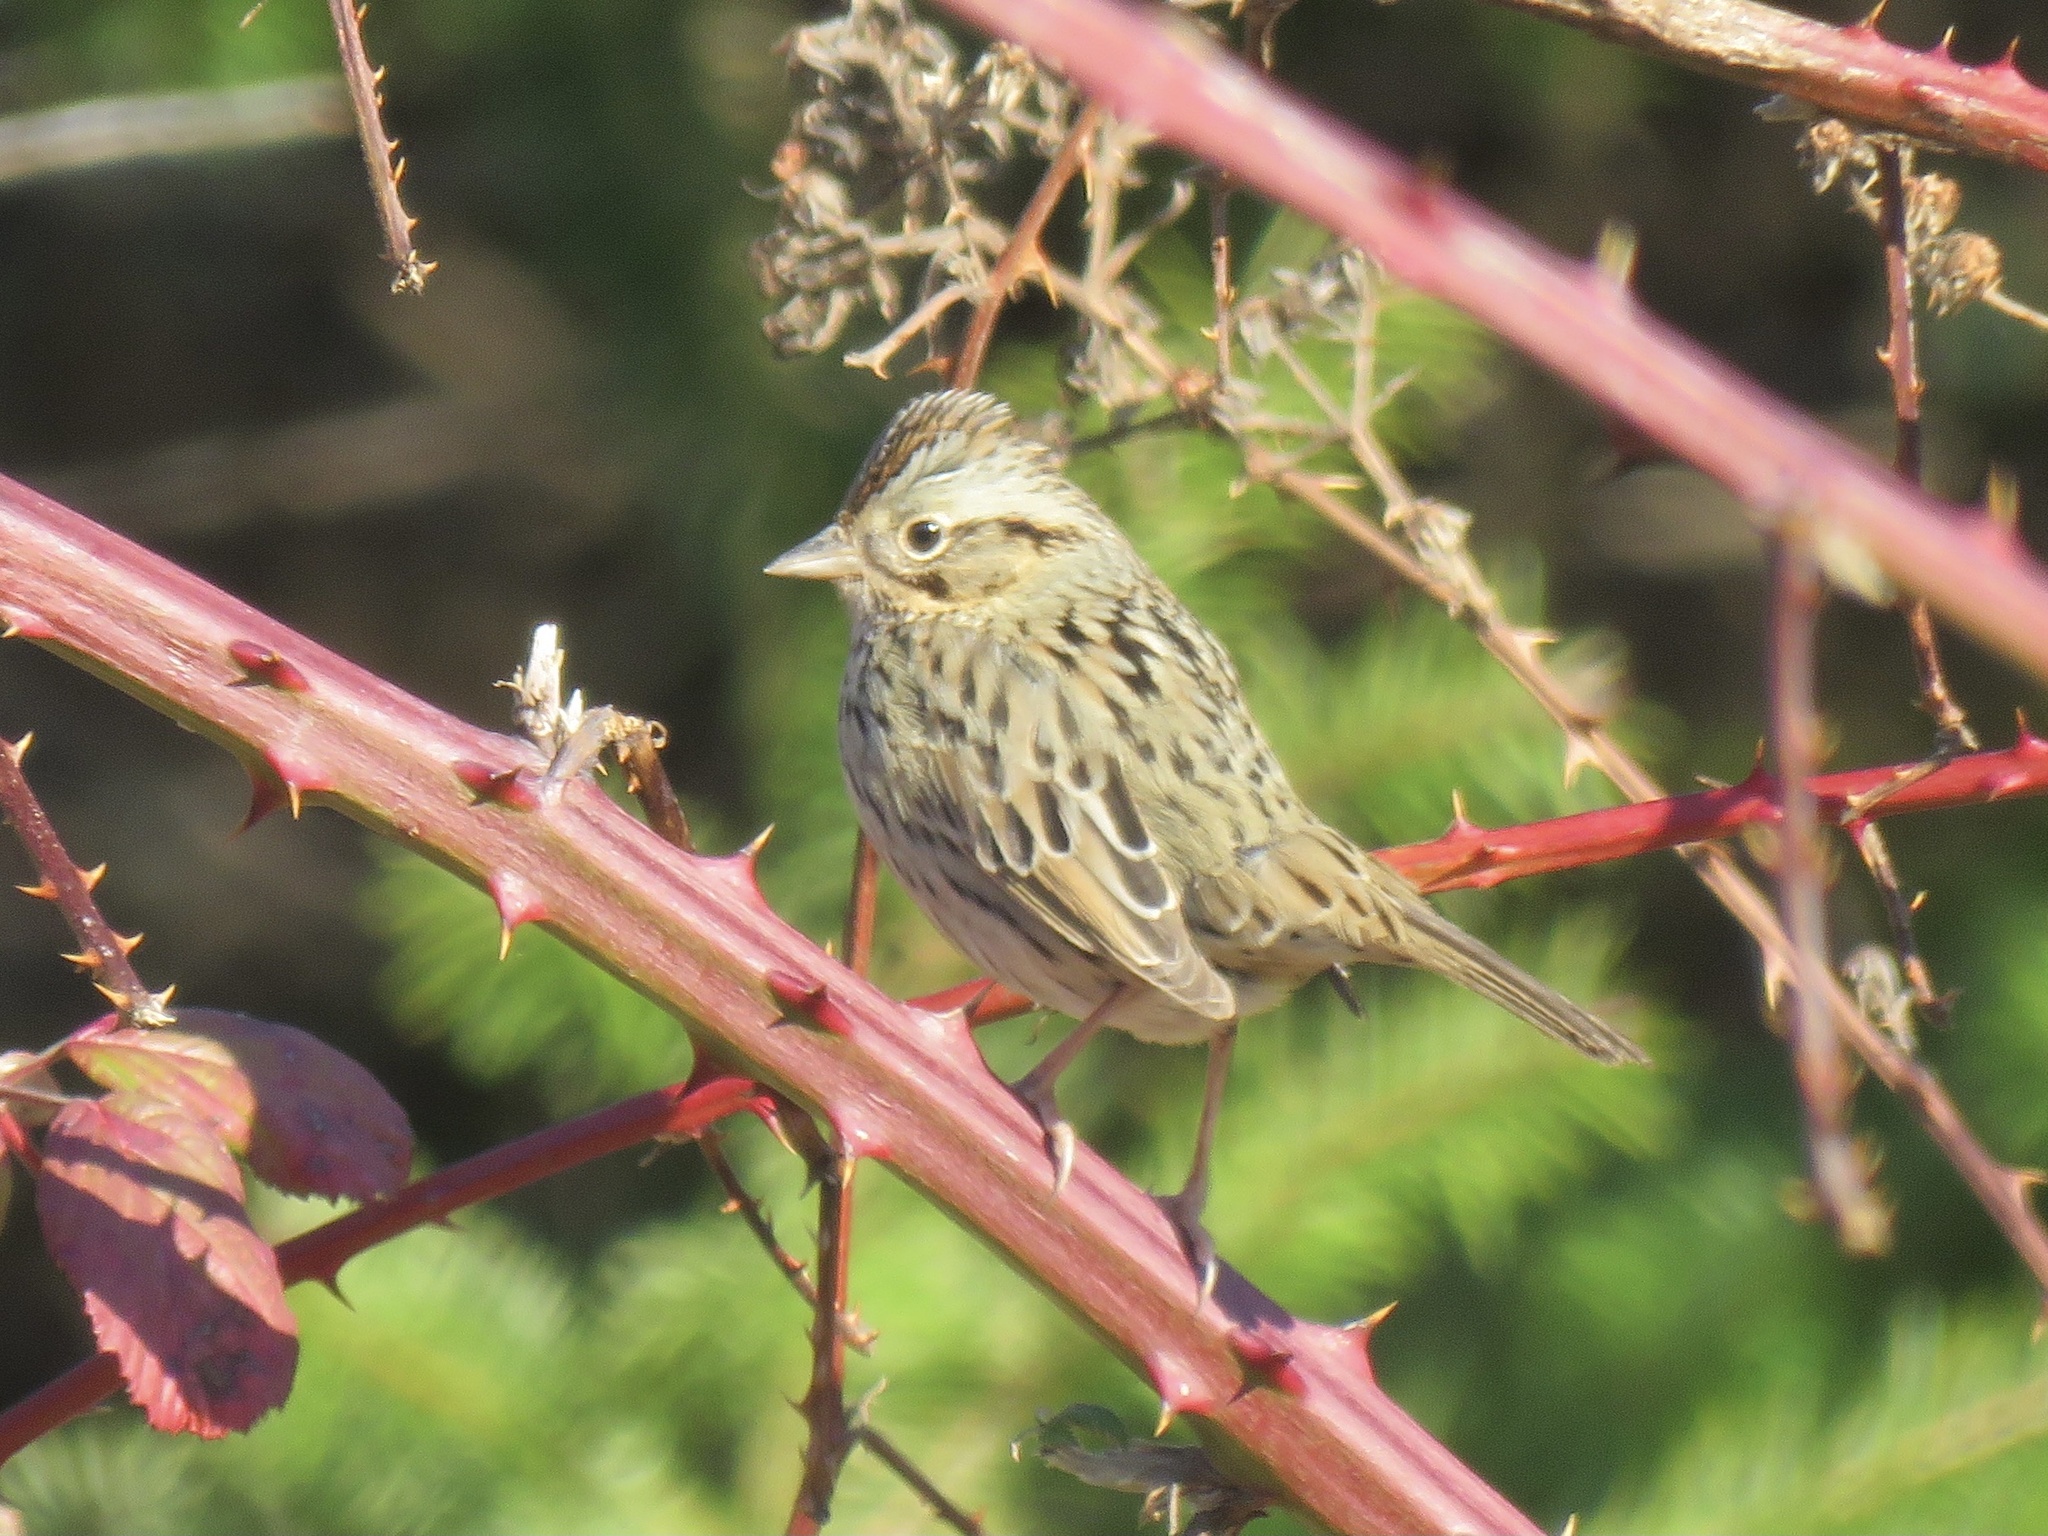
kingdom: Animalia
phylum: Chordata
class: Aves
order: Passeriformes
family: Passerellidae
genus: Melospiza
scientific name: Melospiza lincolnii
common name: Lincoln's sparrow
